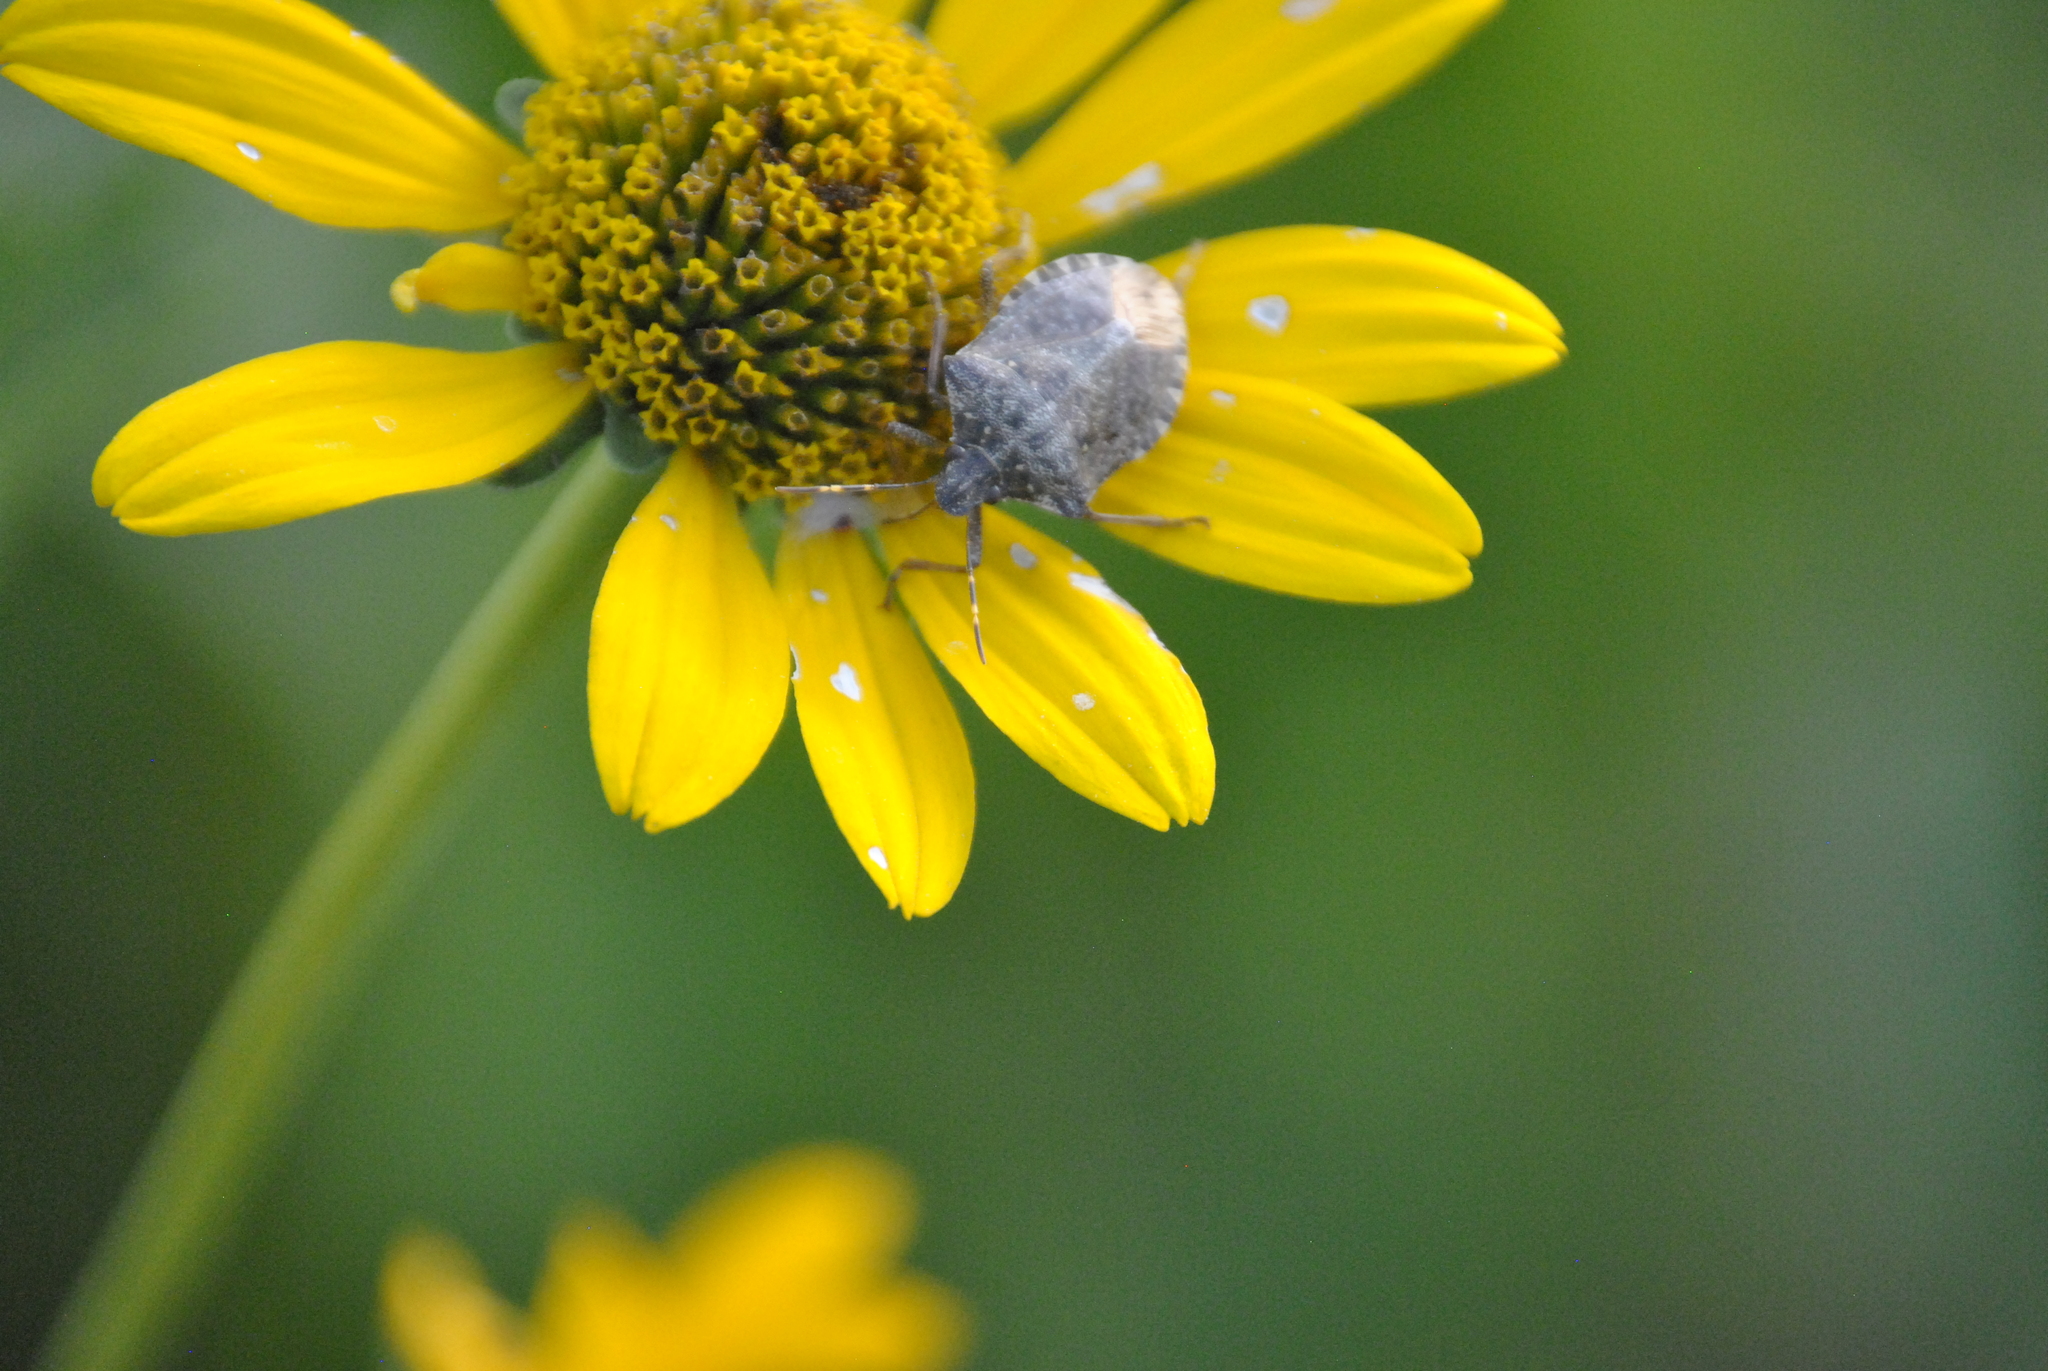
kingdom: Animalia
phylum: Arthropoda
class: Insecta
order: Hemiptera
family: Pentatomidae
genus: Halyomorpha
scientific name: Halyomorpha halys
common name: Brown marmorated stink bug
